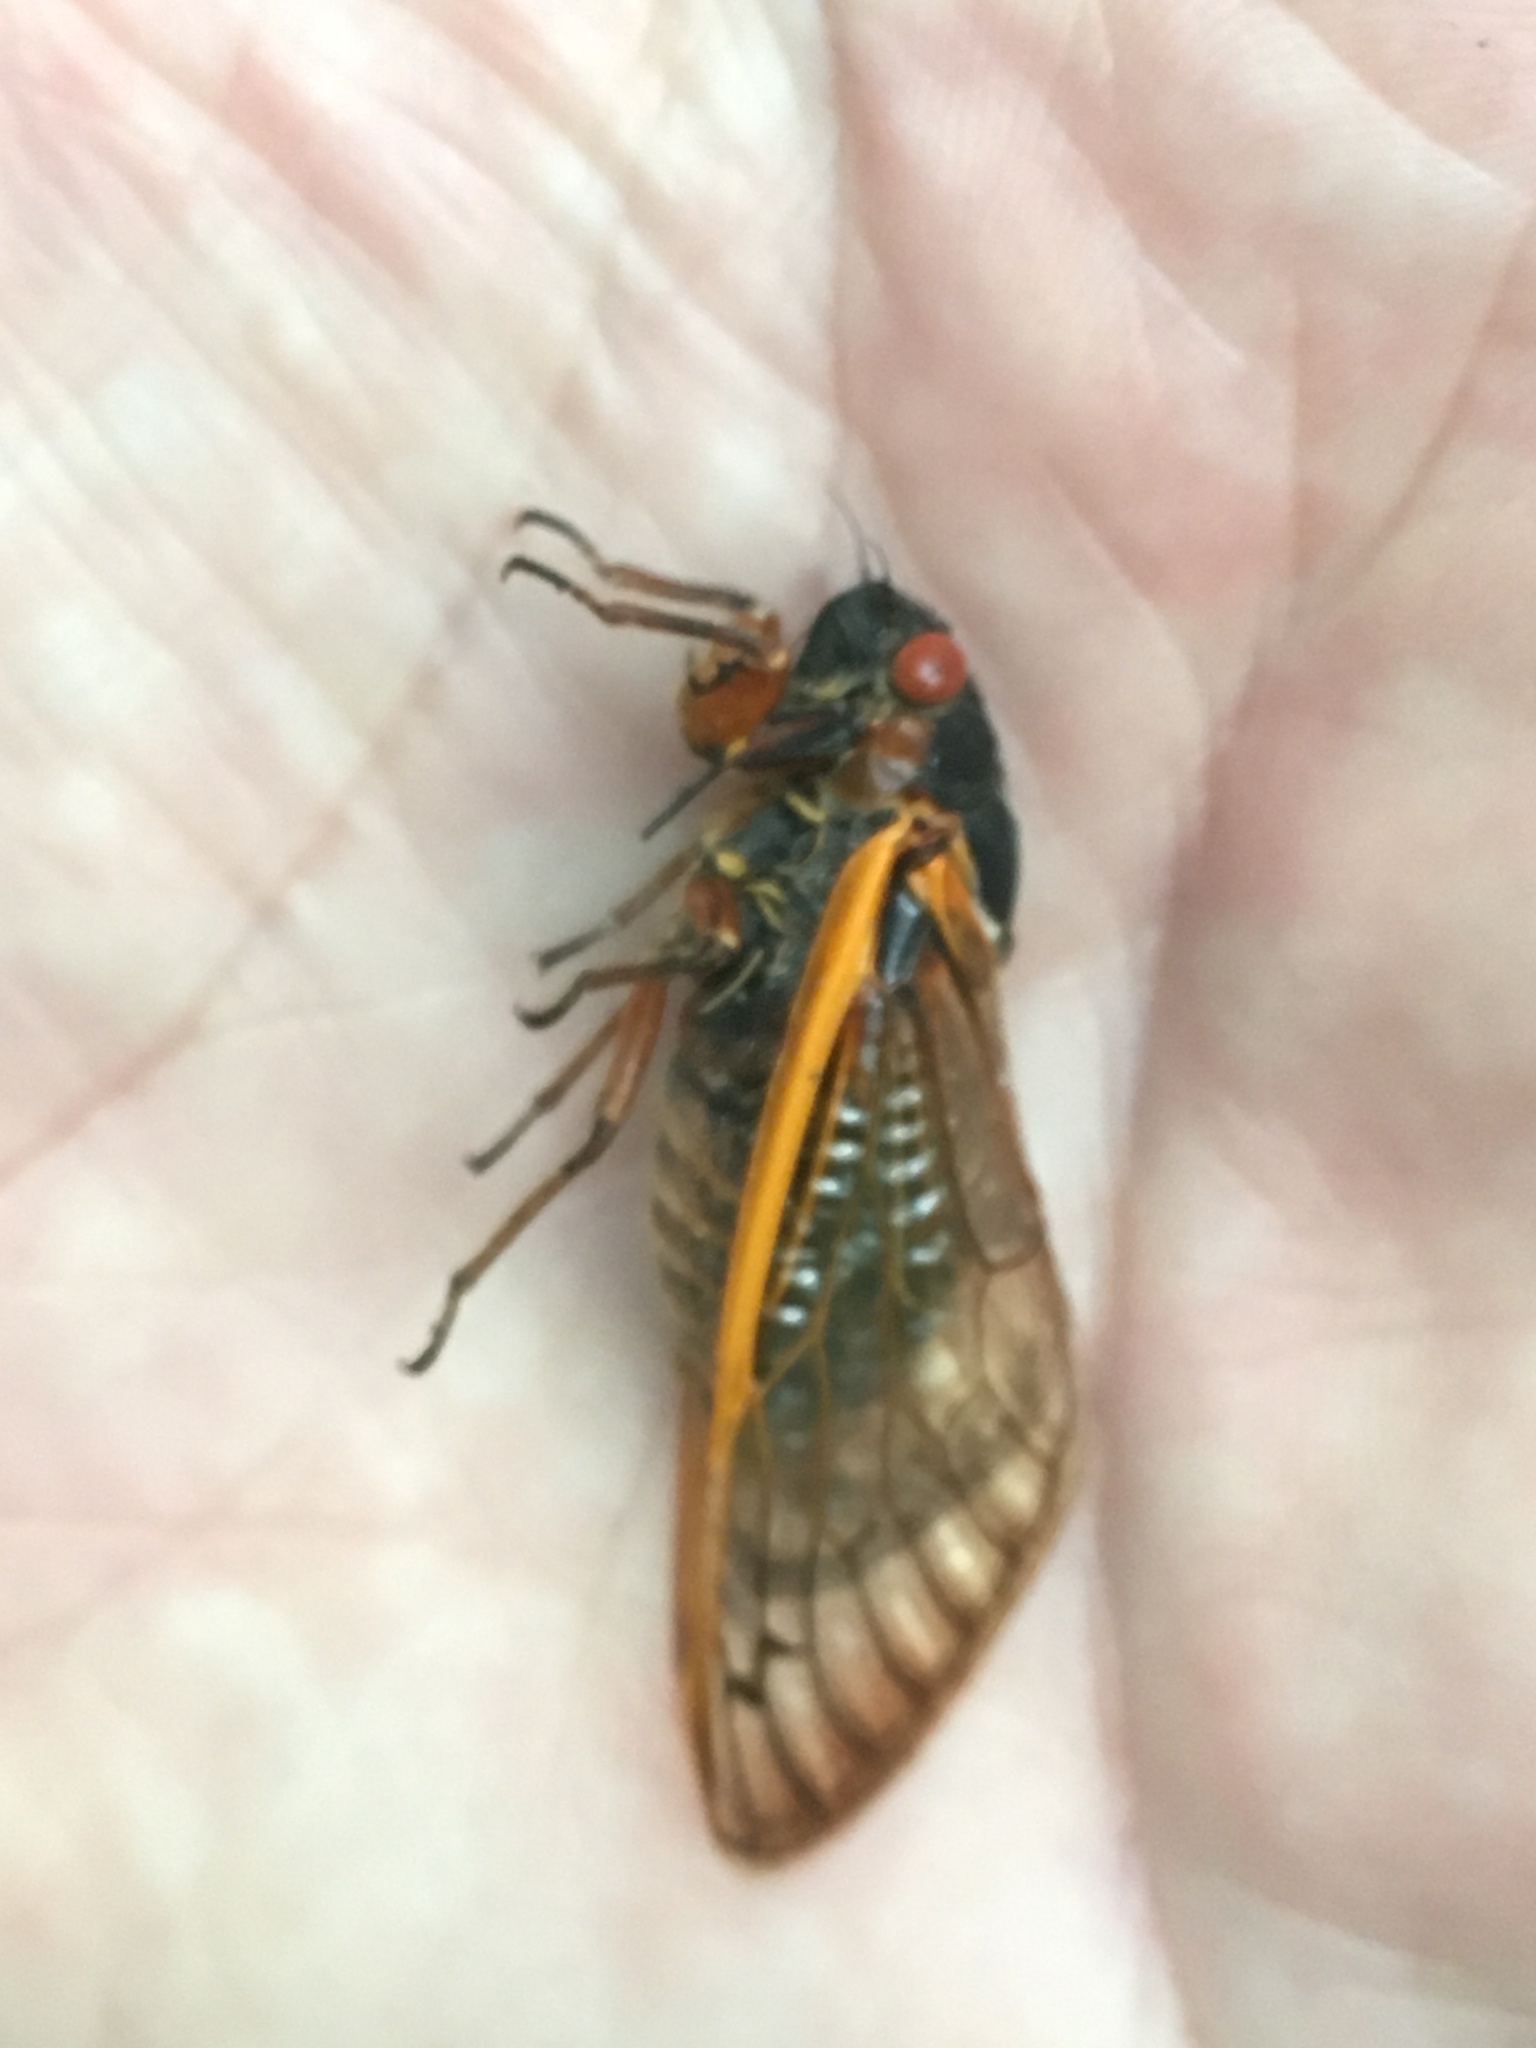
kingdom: Animalia
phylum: Arthropoda
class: Insecta
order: Hemiptera
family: Cicadidae
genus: Magicicada
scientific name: Magicicada septendecim
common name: Periodical cicada
